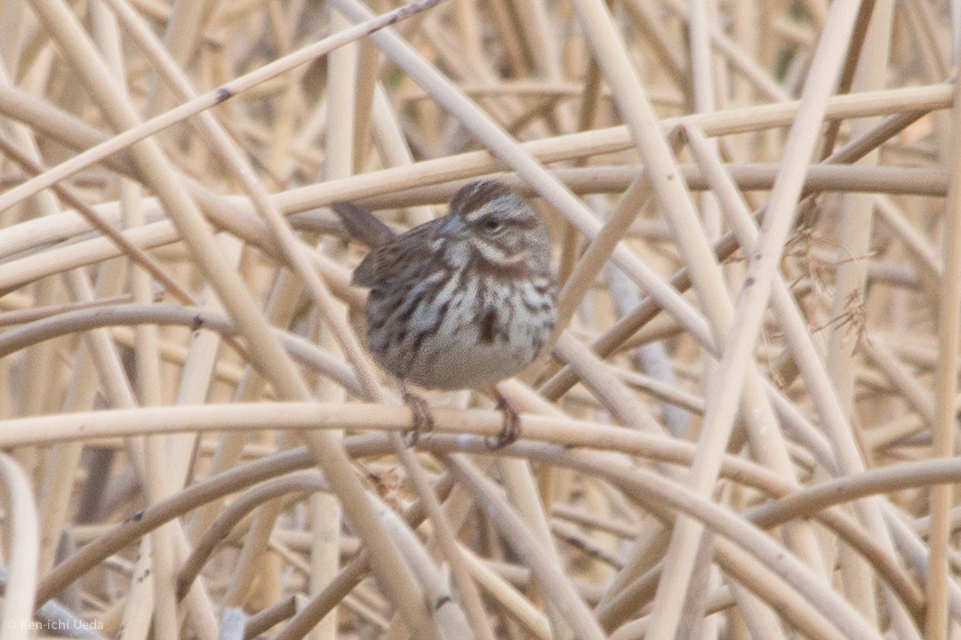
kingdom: Animalia
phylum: Chordata
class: Aves
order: Passeriformes
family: Passerellidae
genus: Melospiza
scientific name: Melospiza melodia
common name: Song sparrow
